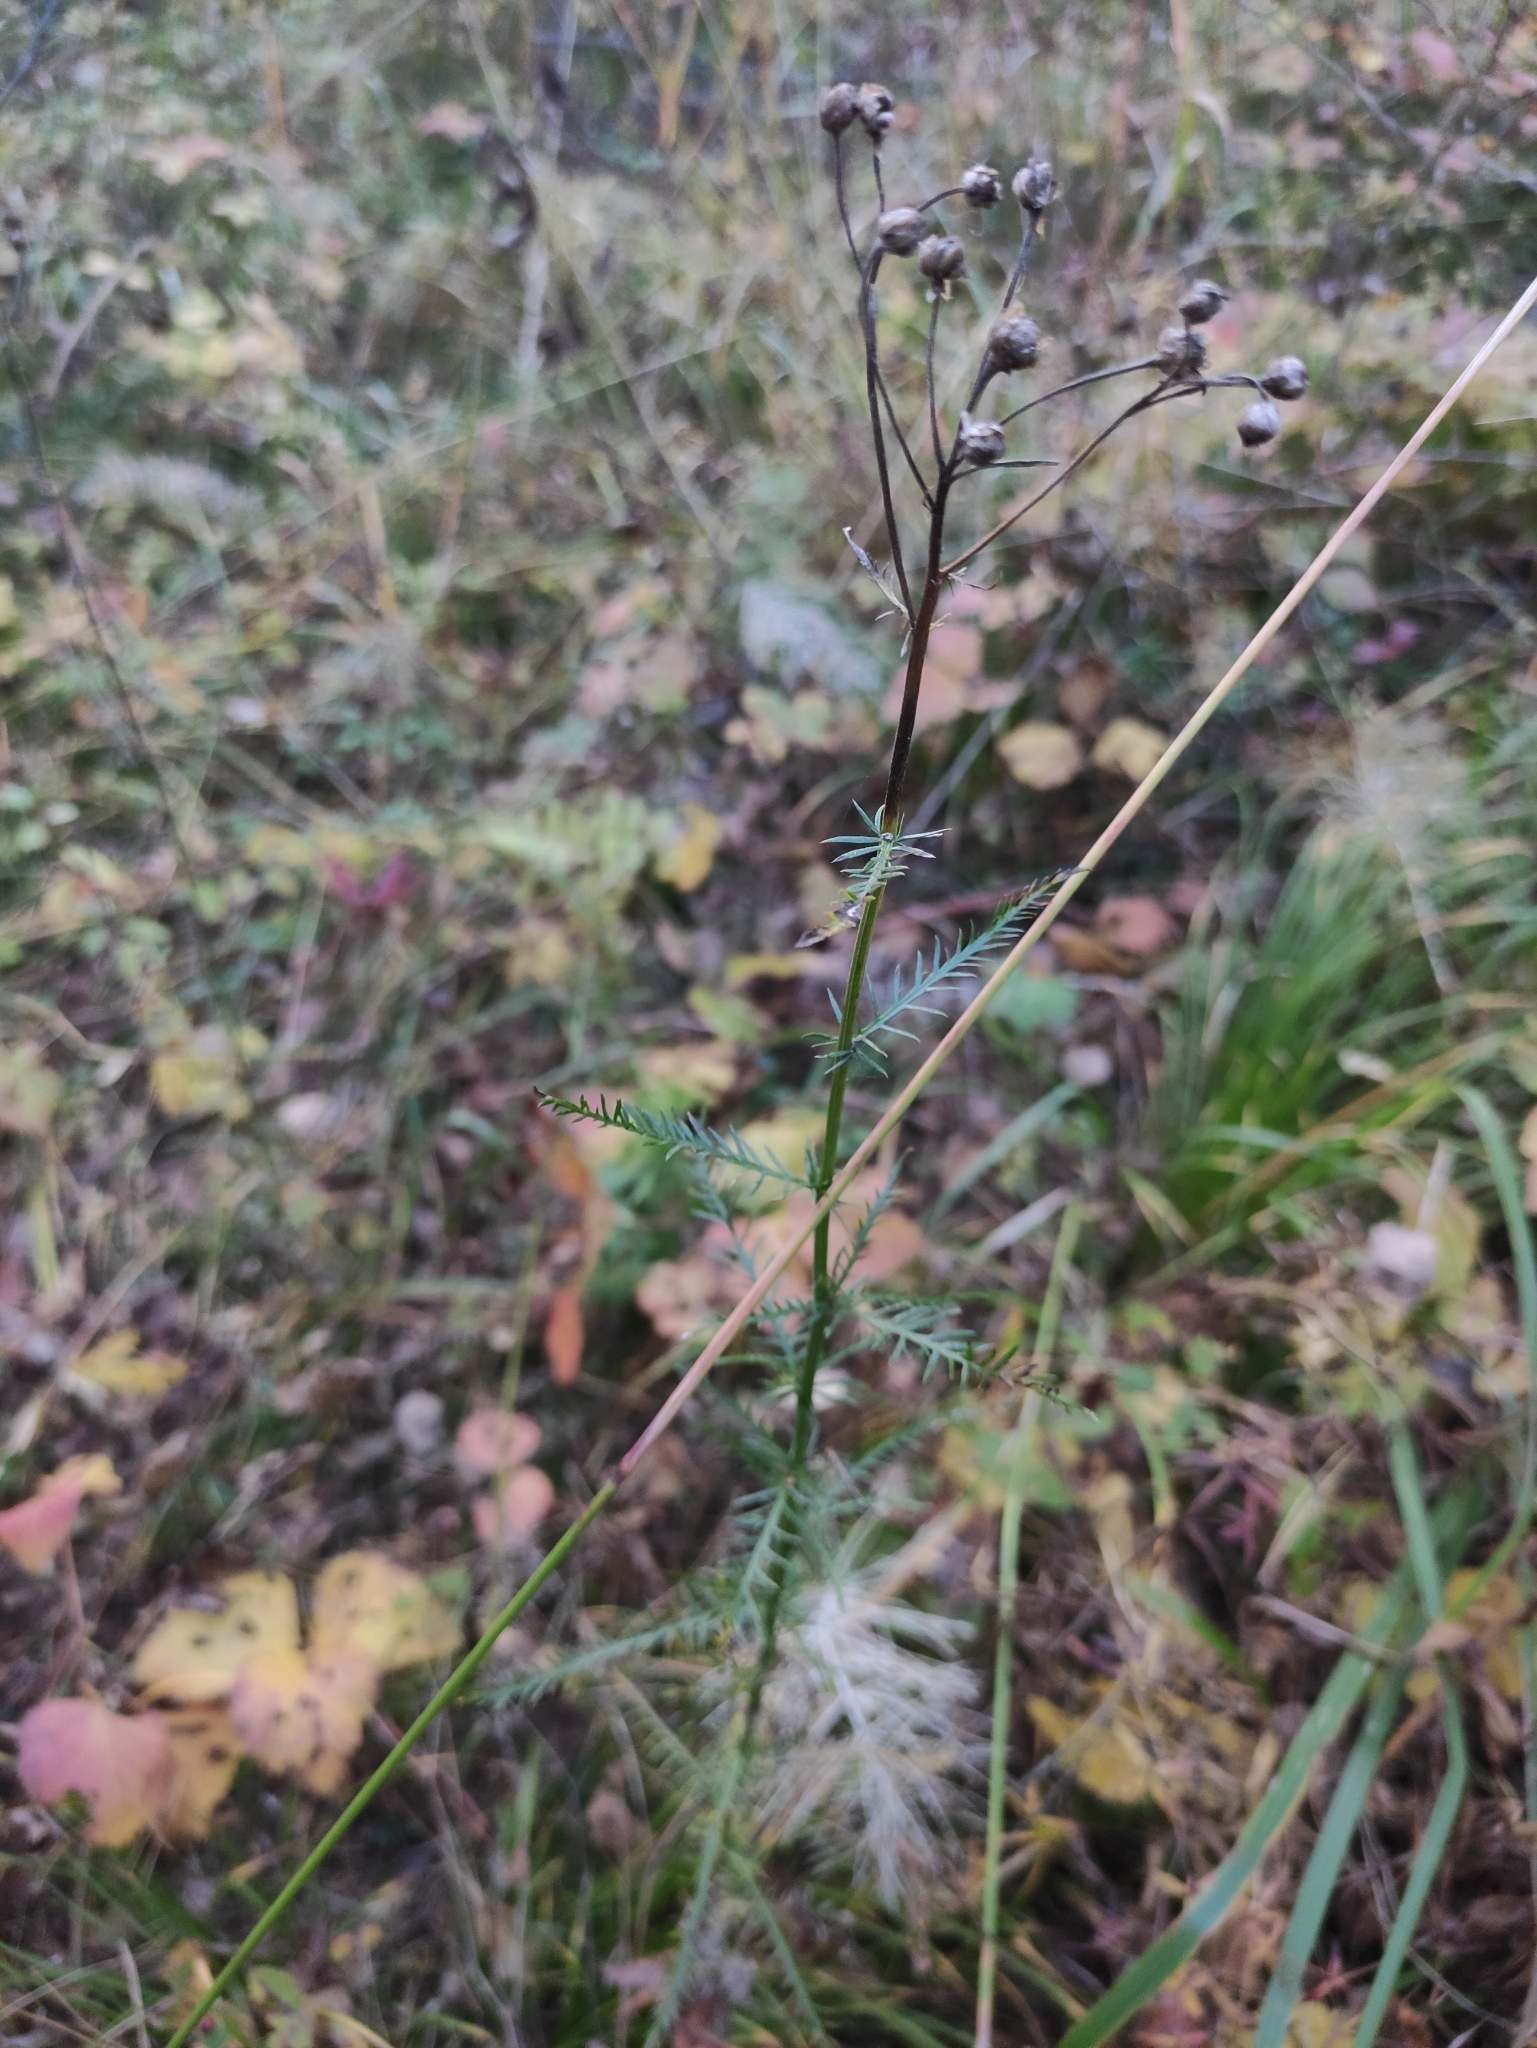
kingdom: Plantae
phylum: Tracheophyta
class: Magnoliopsida
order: Asterales
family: Asteraceae
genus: Achillea
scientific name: Achillea impatiens
